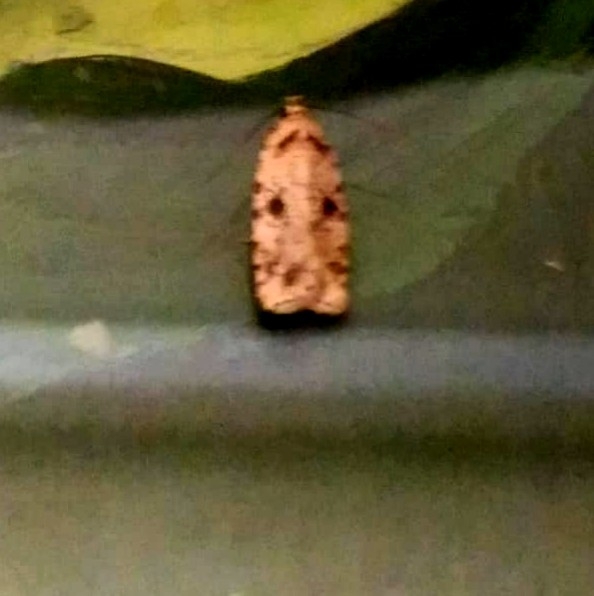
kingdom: Animalia
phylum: Arthropoda
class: Insecta
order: Lepidoptera
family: Depressariidae
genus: Agonopterix
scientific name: Agonopterix arenella
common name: Brindled flat-body
